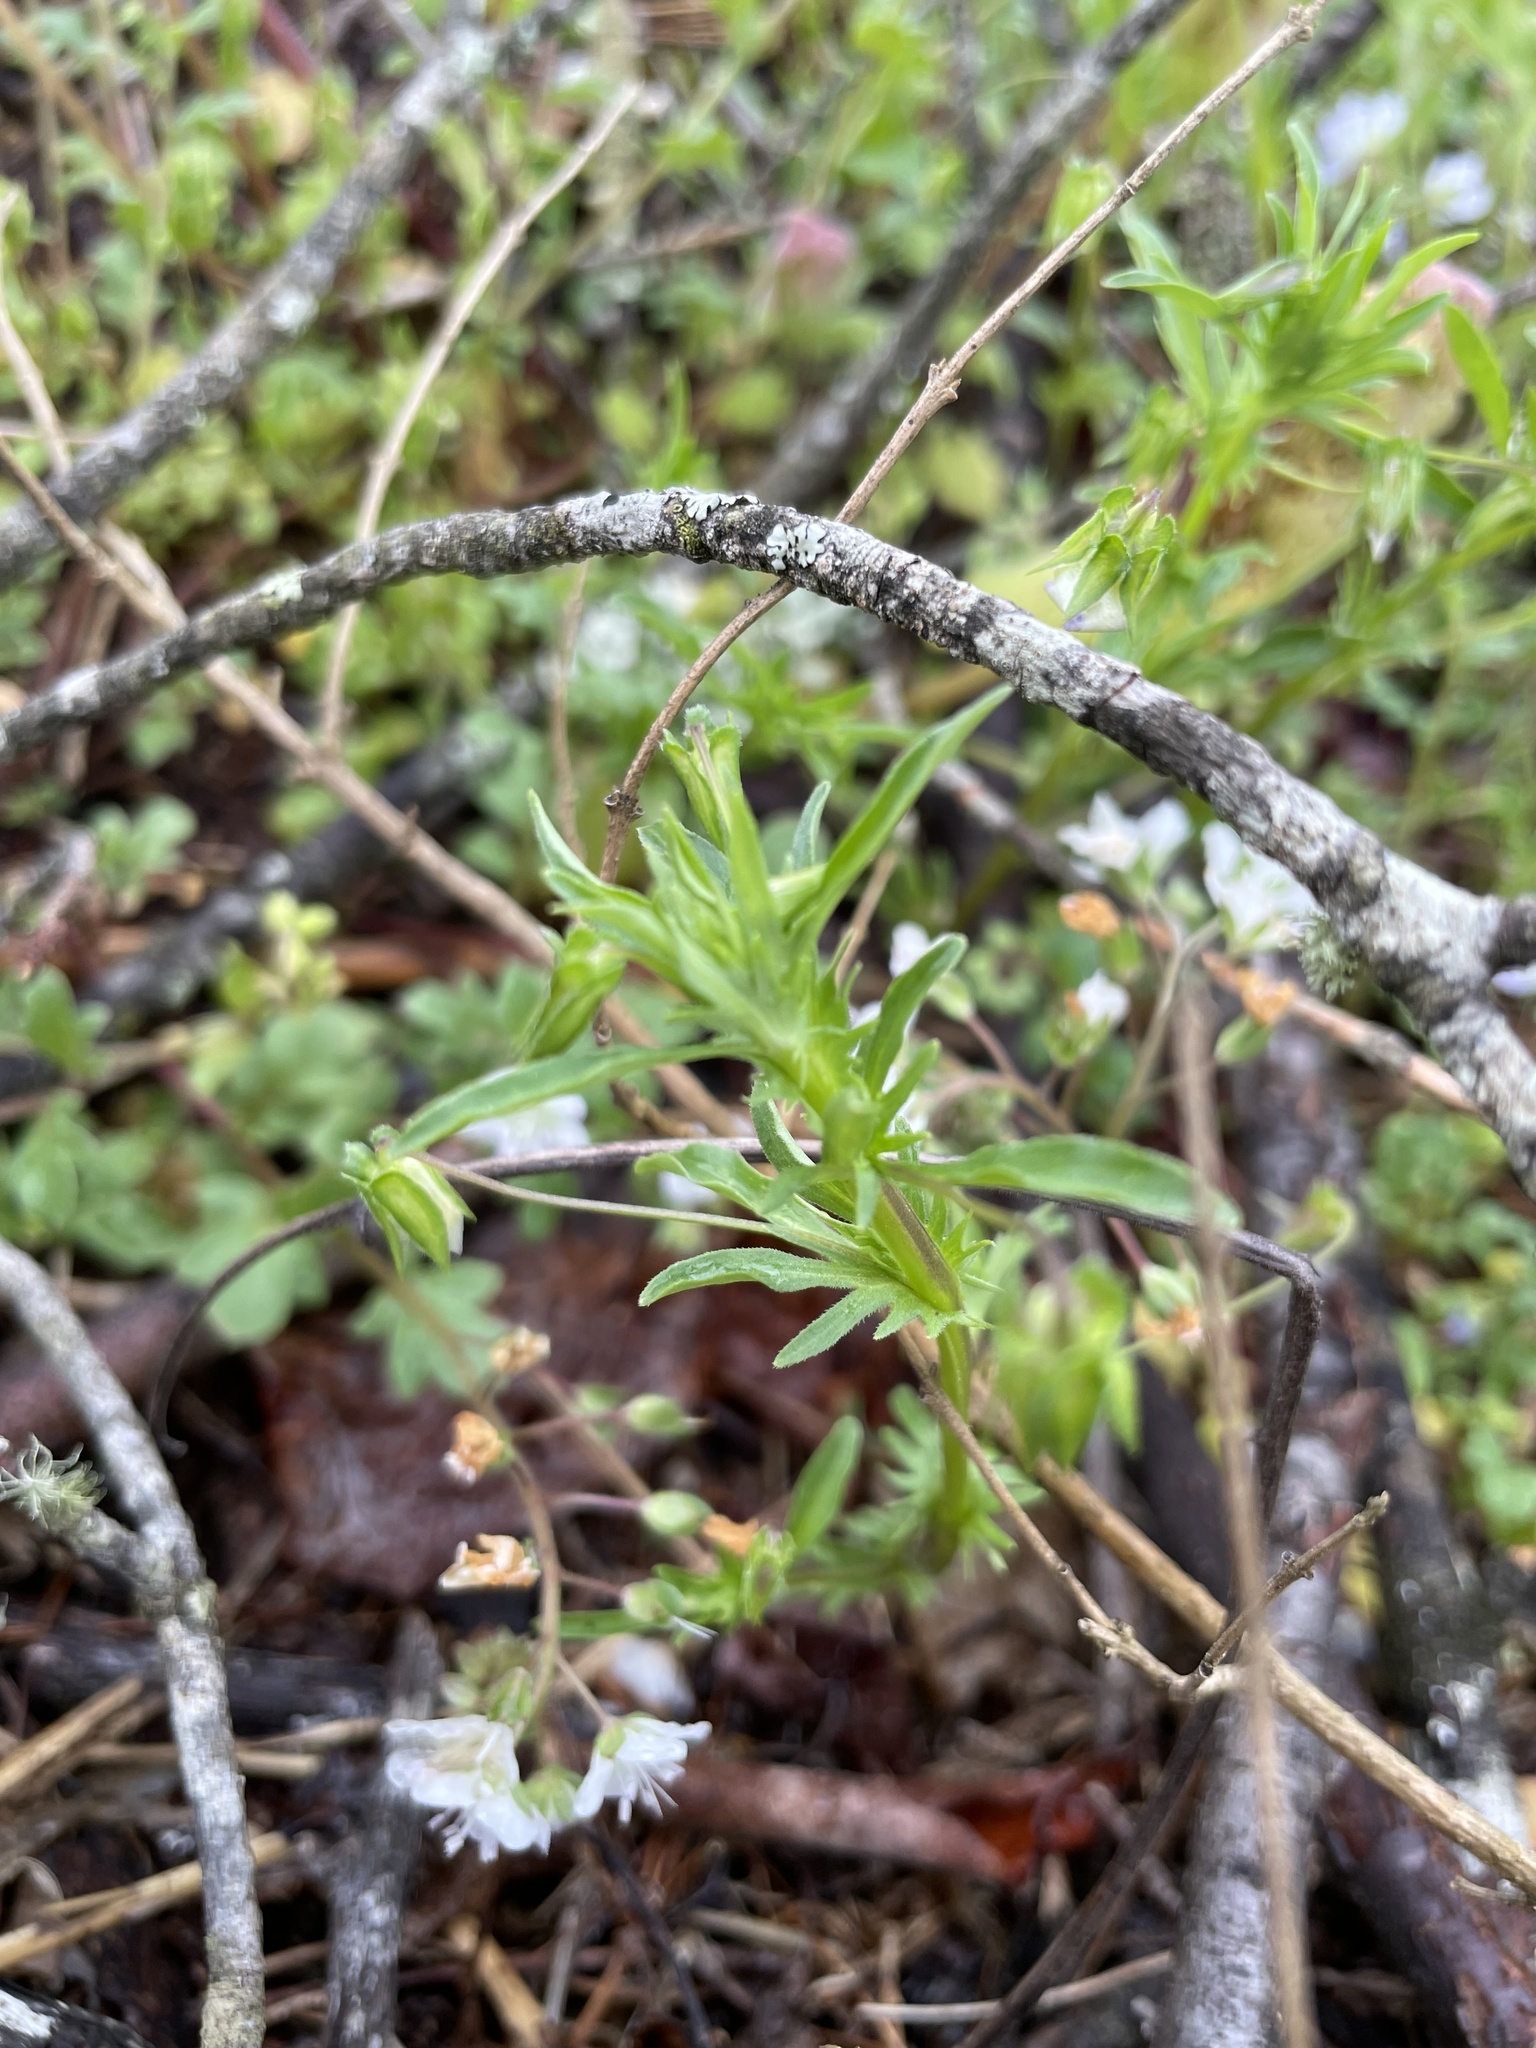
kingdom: Plantae
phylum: Tracheophyta
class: Magnoliopsida
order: Malpighiales
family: Violaceae
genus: Viola
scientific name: Viola rafinesquei
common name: American field pansy
